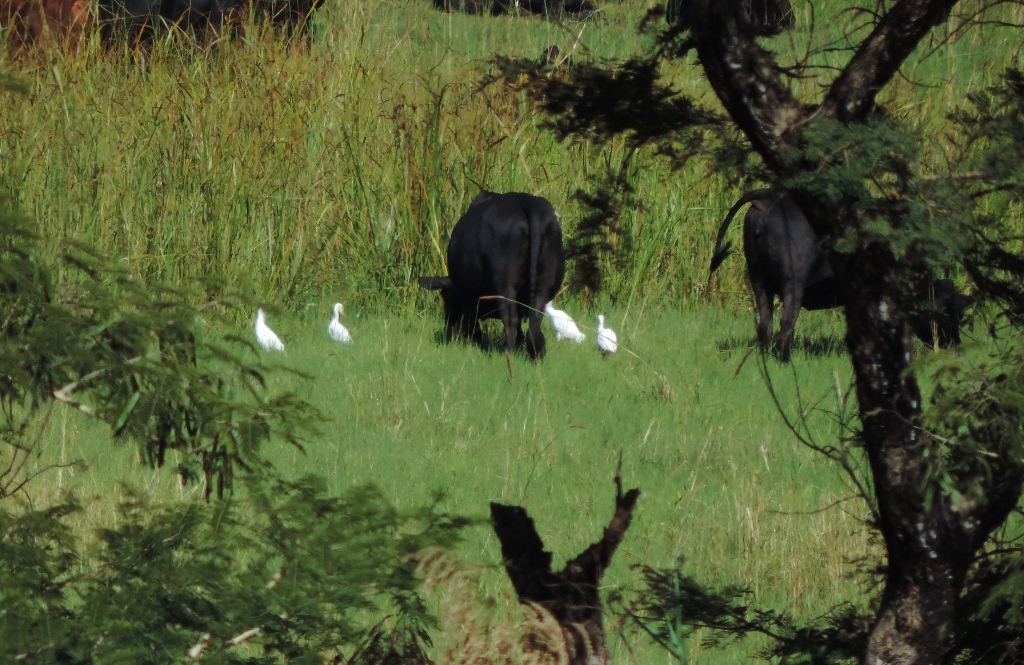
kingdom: Animalia
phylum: Chordata
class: Aves
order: Pelecaniformes
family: Ardeidae
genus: Bubulcus
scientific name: Bubulcus ibis
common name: Cattle egret
